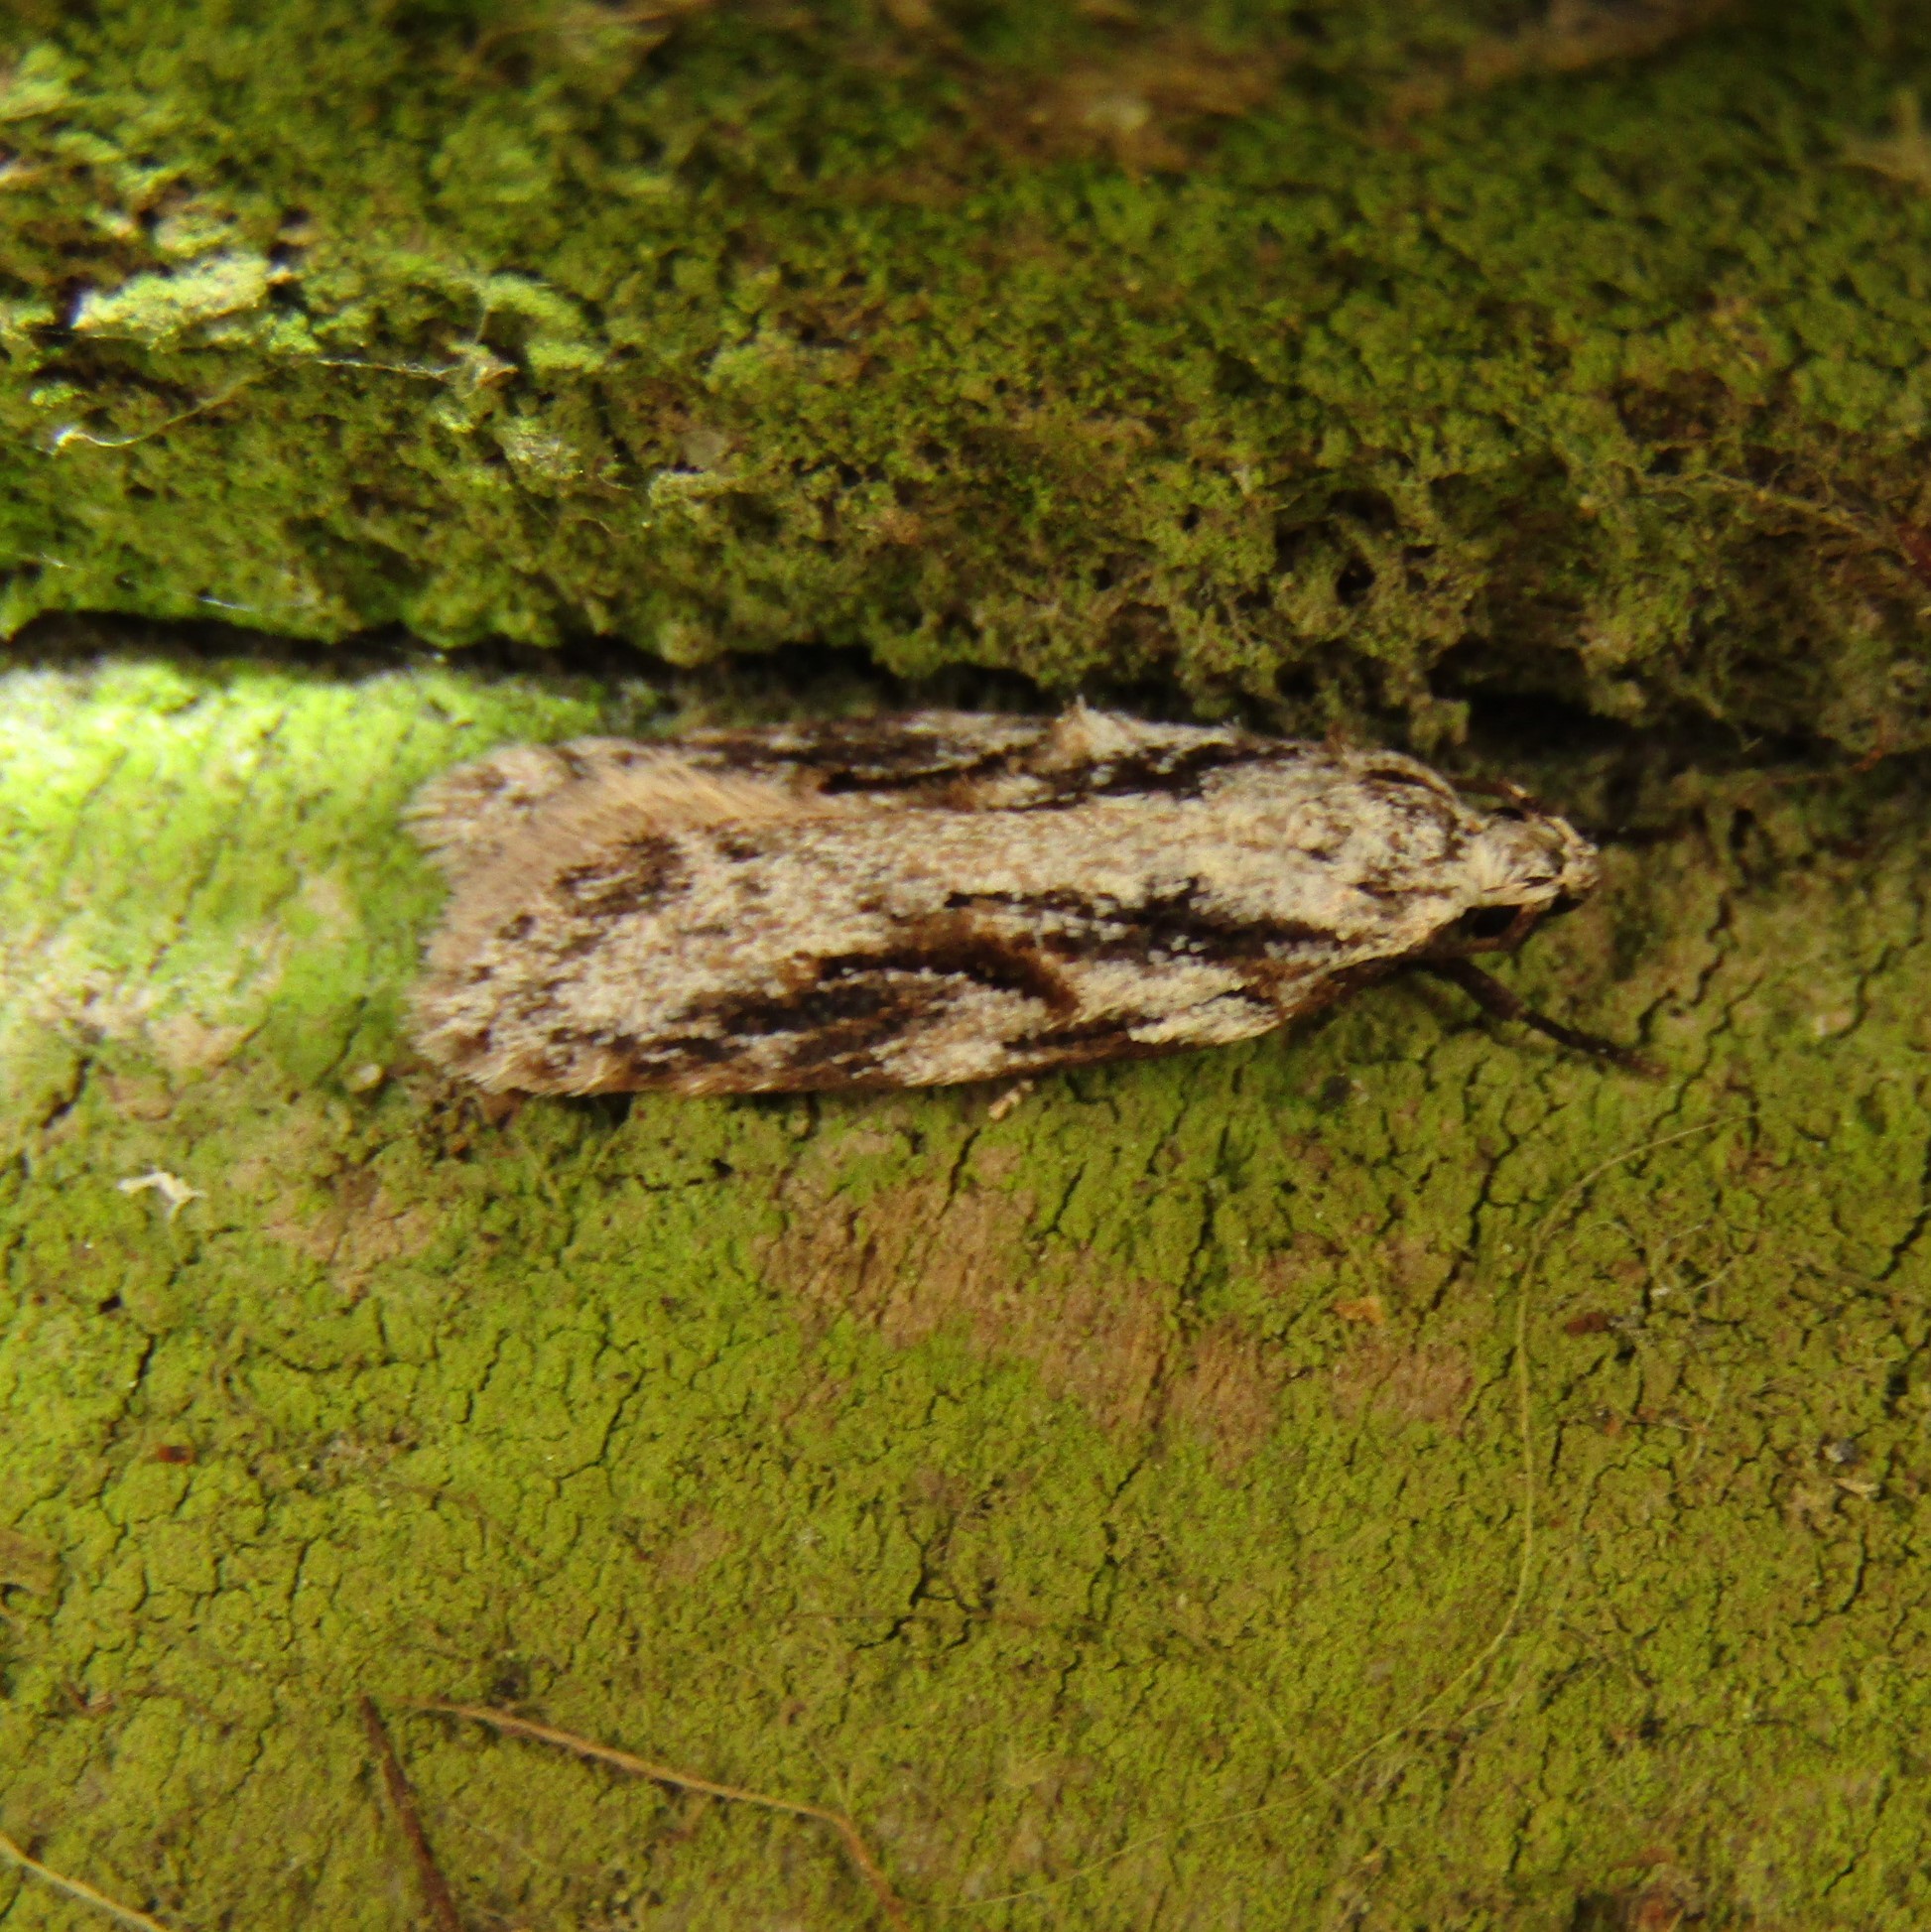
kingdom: Animalia
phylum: Arthropoda
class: Insecta
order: Lepidoptera
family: Oecophoridae
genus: Izatha
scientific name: Izatha mesoschista
